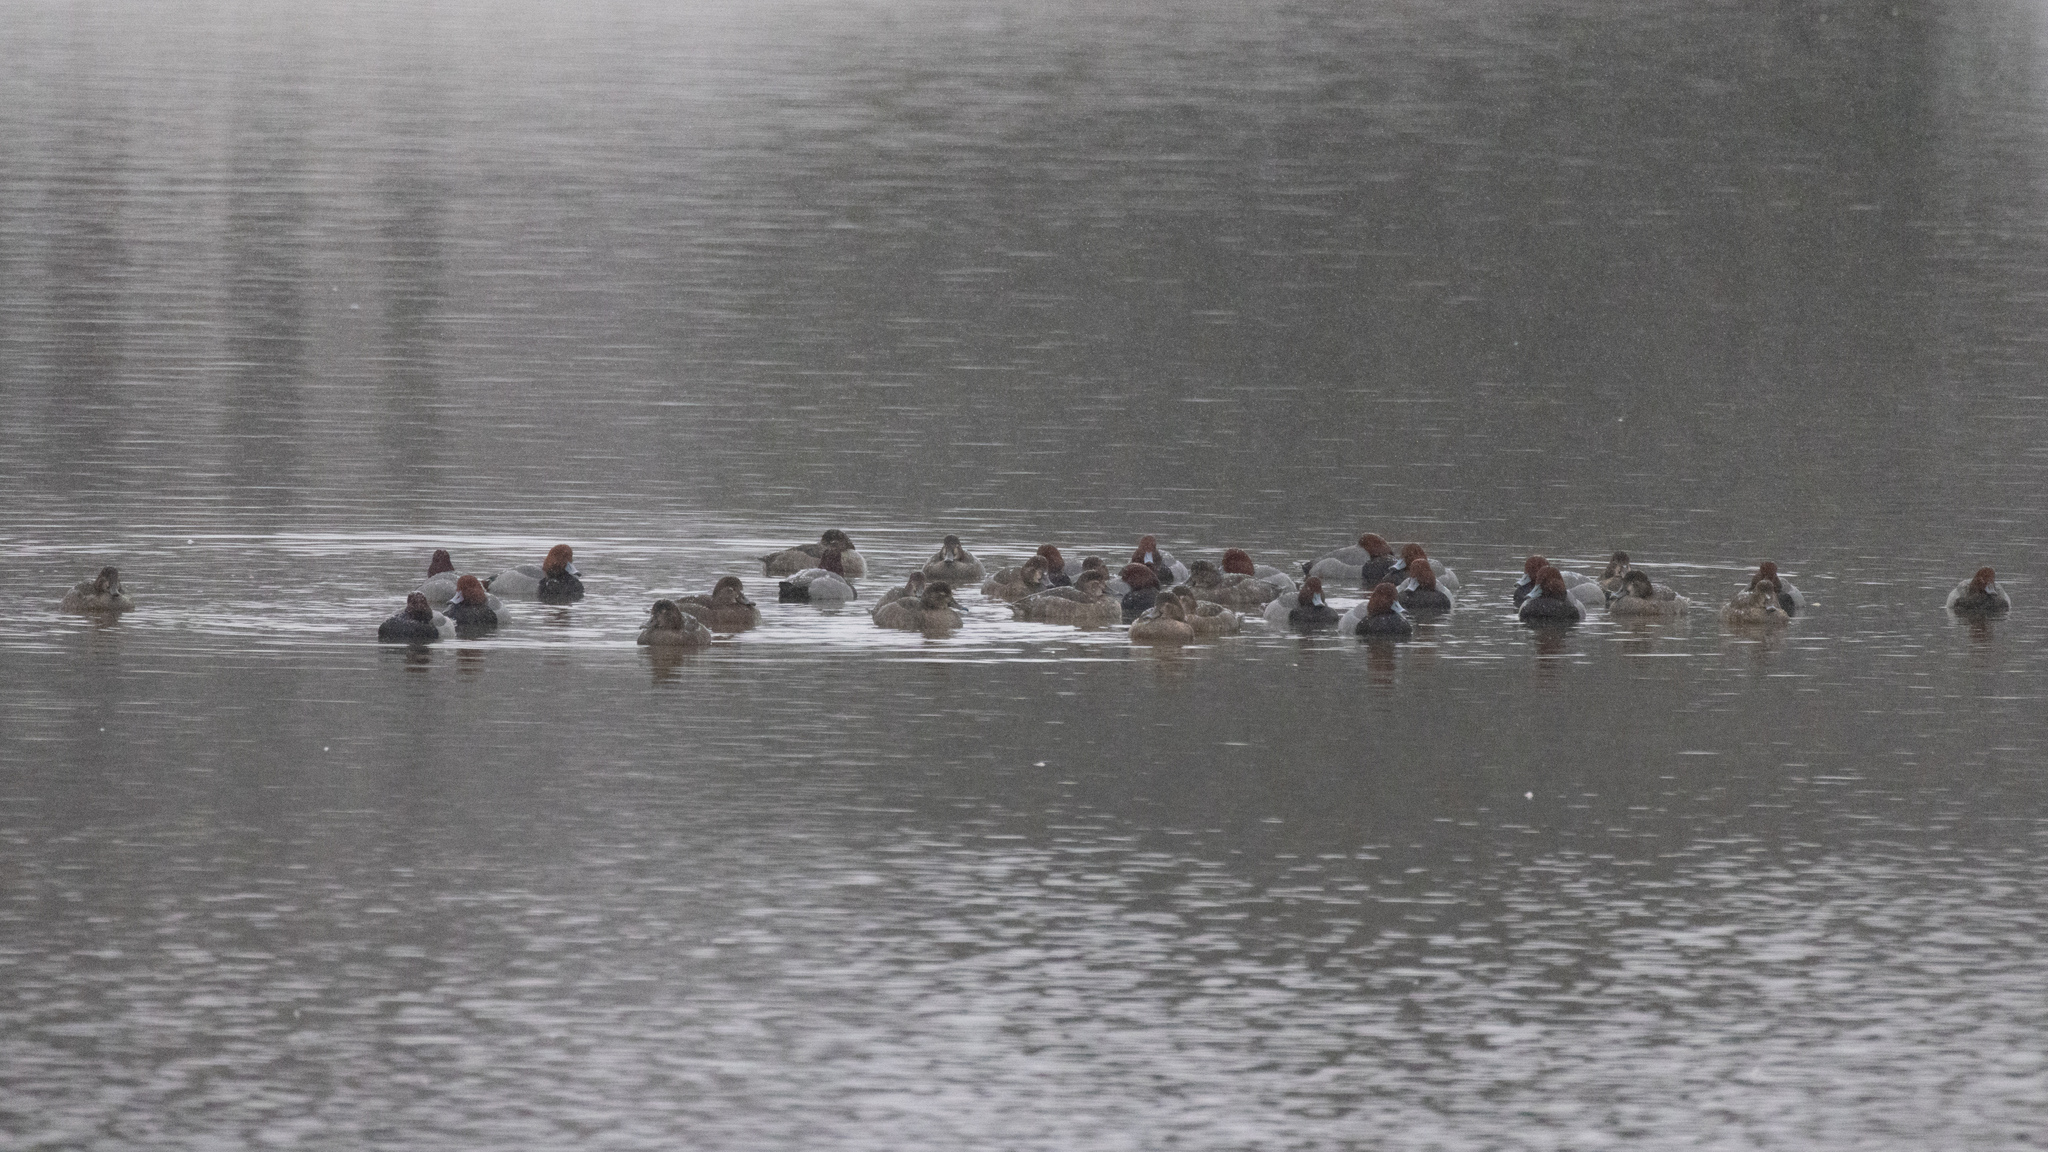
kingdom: Animalia
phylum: Chordata
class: Aves
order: Anseriformes
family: Anatidae
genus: Aythya
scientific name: Aythya americana
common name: Redhead
